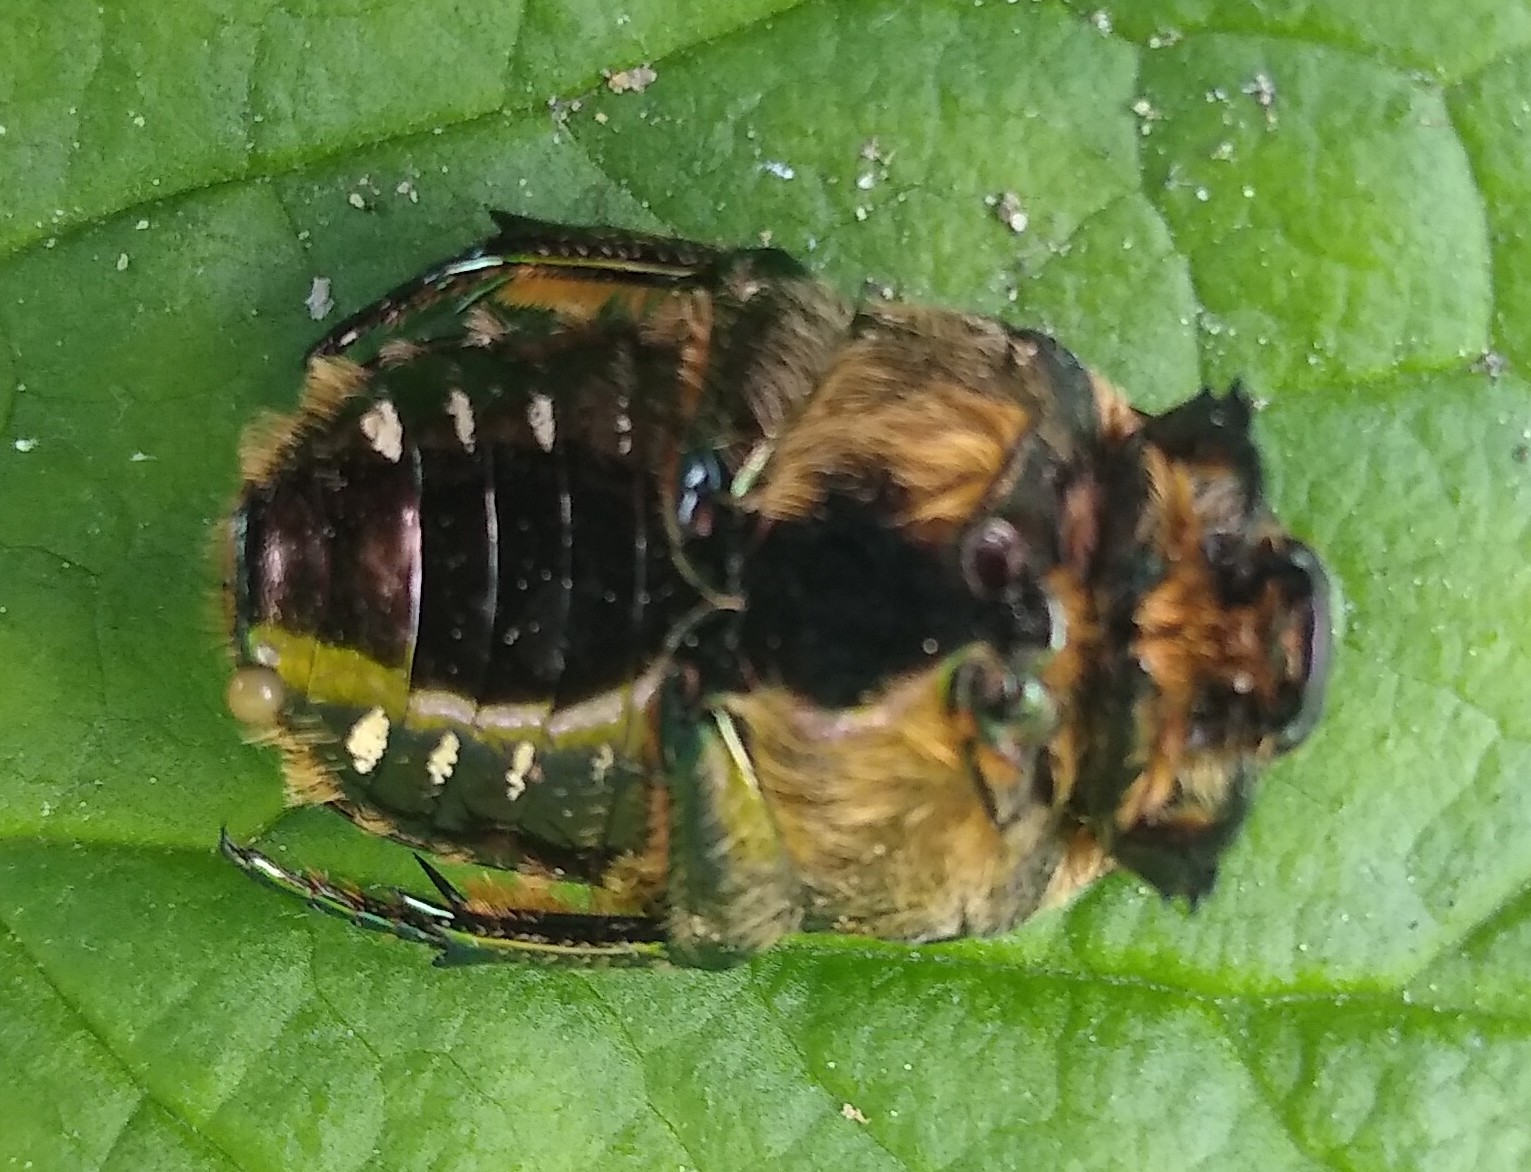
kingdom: Animalia
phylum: Arthropoda
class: Insecta
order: Coleoptera
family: Scarabaeidae
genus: Protaetia
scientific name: Protaetia marmorata
